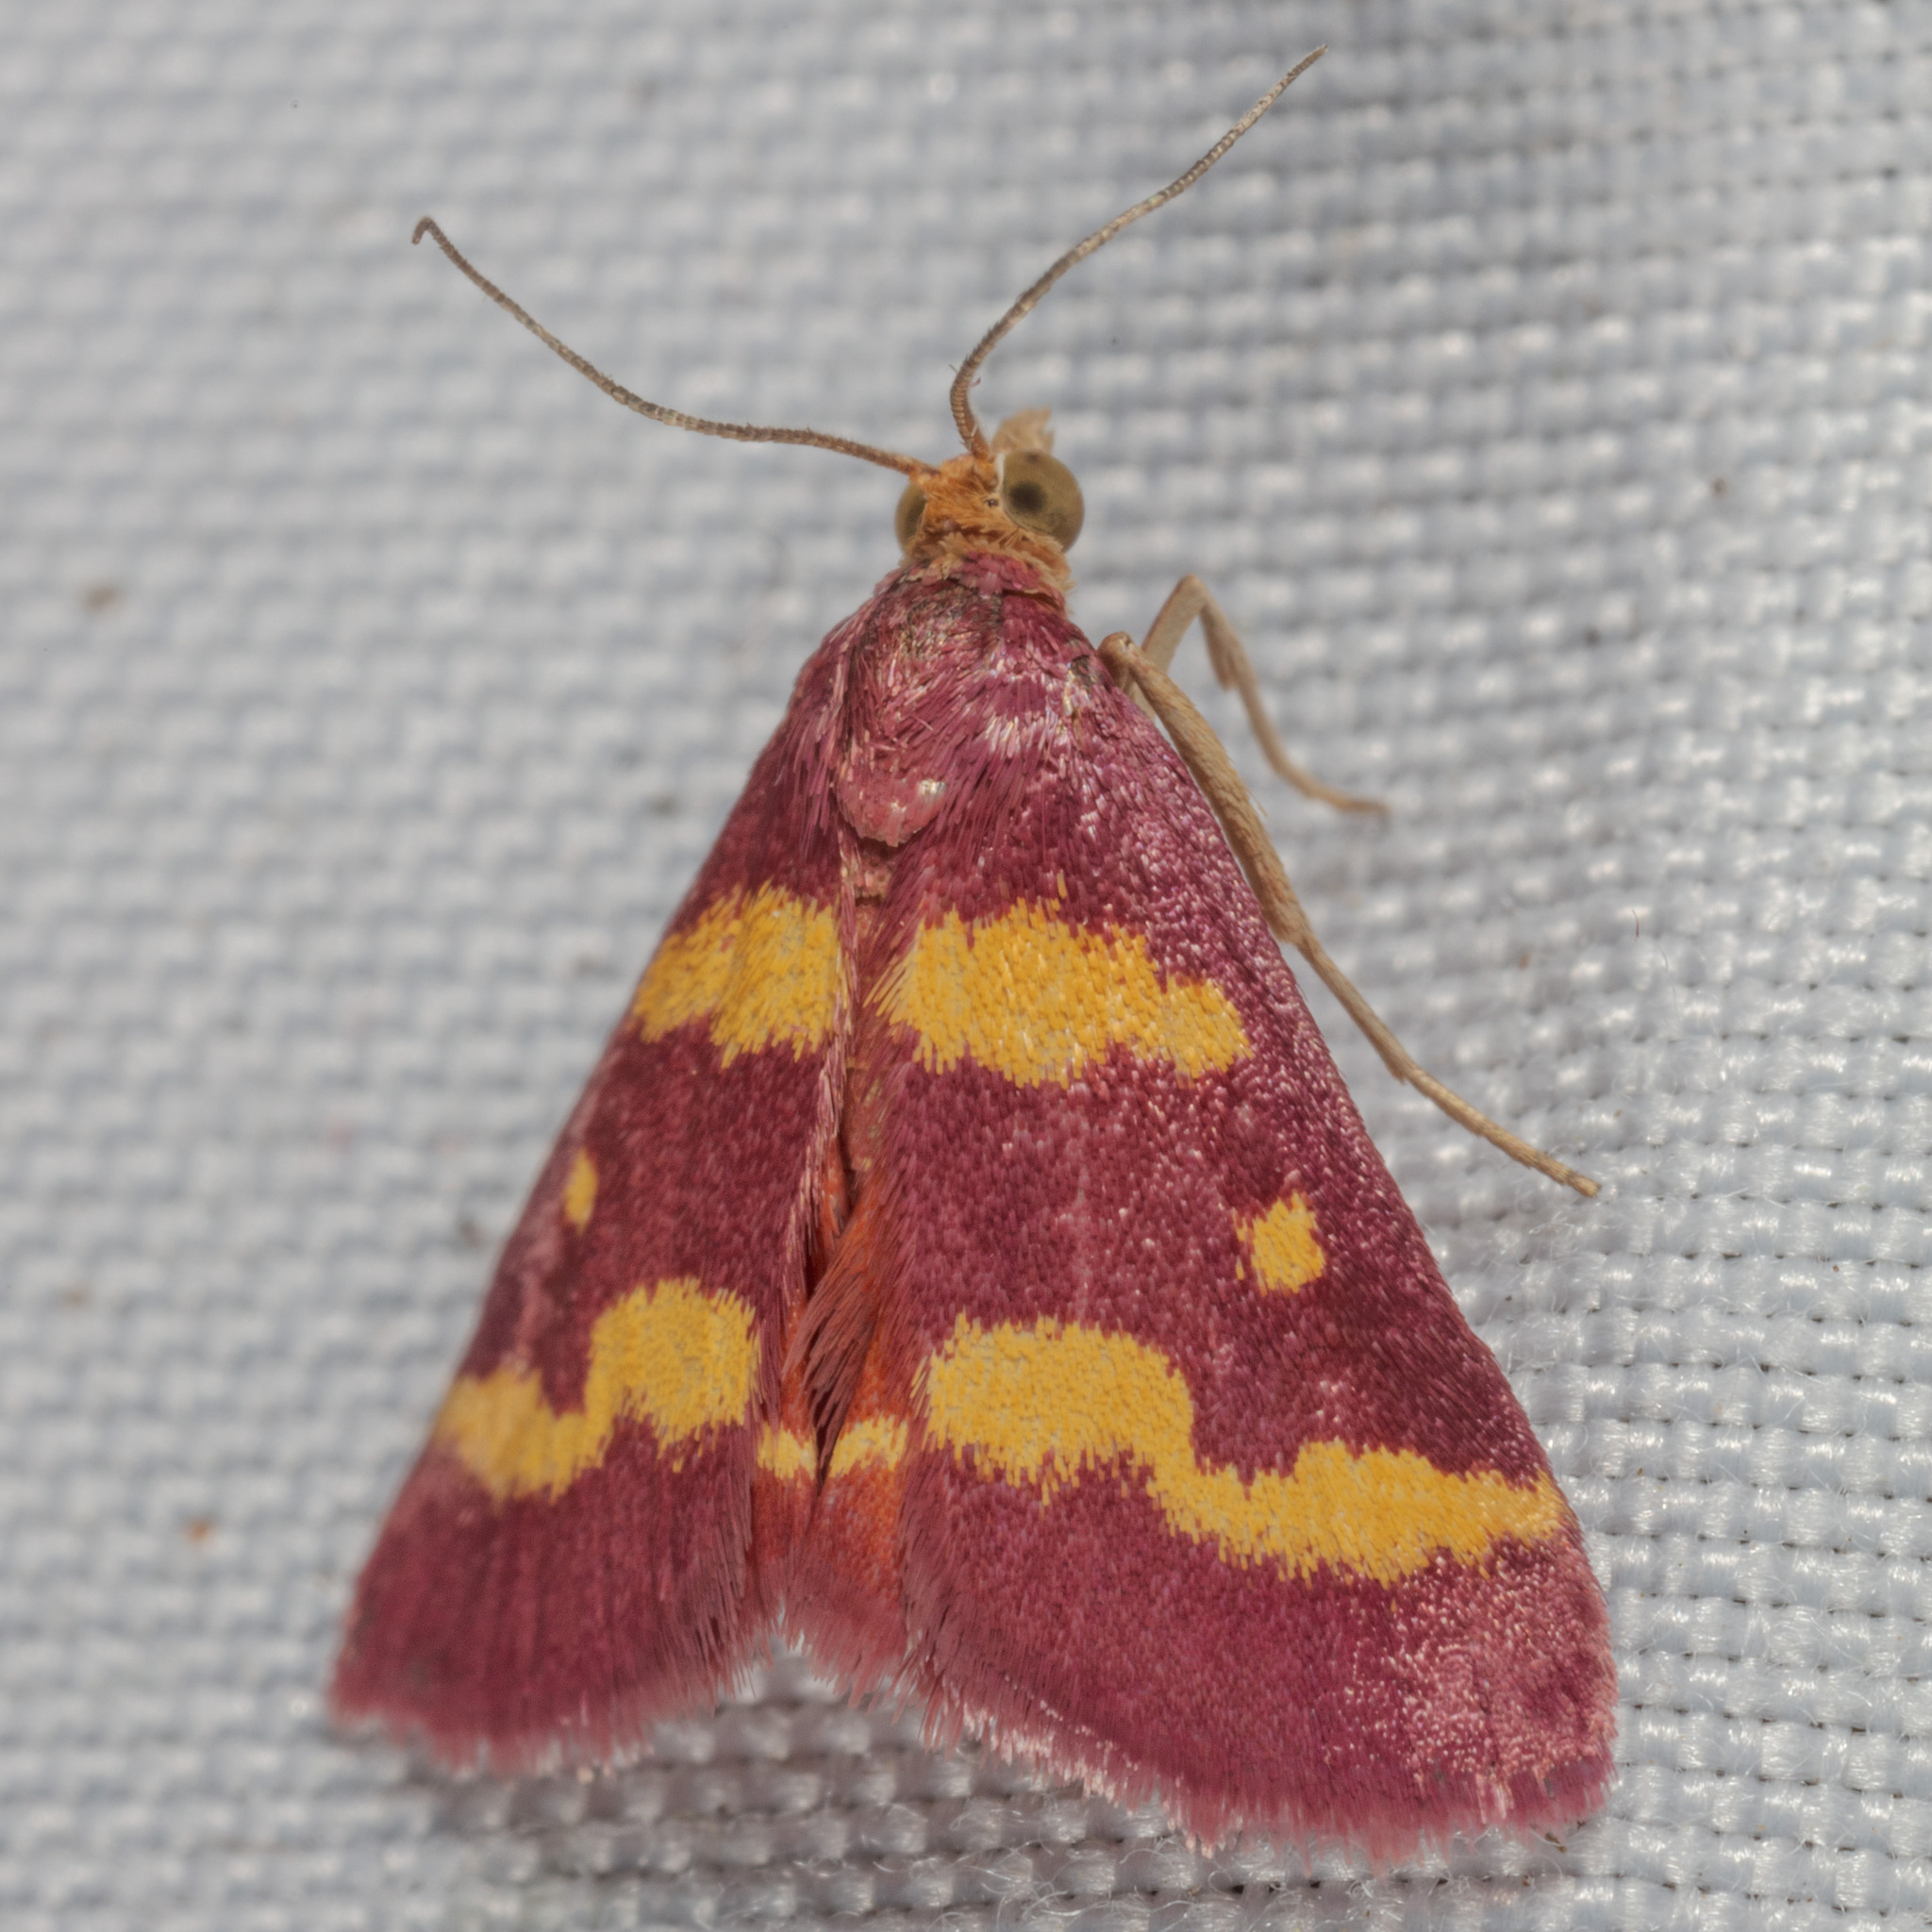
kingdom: Animalia
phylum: Arthropoda
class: Insecta
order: Lepidoptera
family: Crambidae
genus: Pyrausta
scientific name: Pyrausta tyralis
